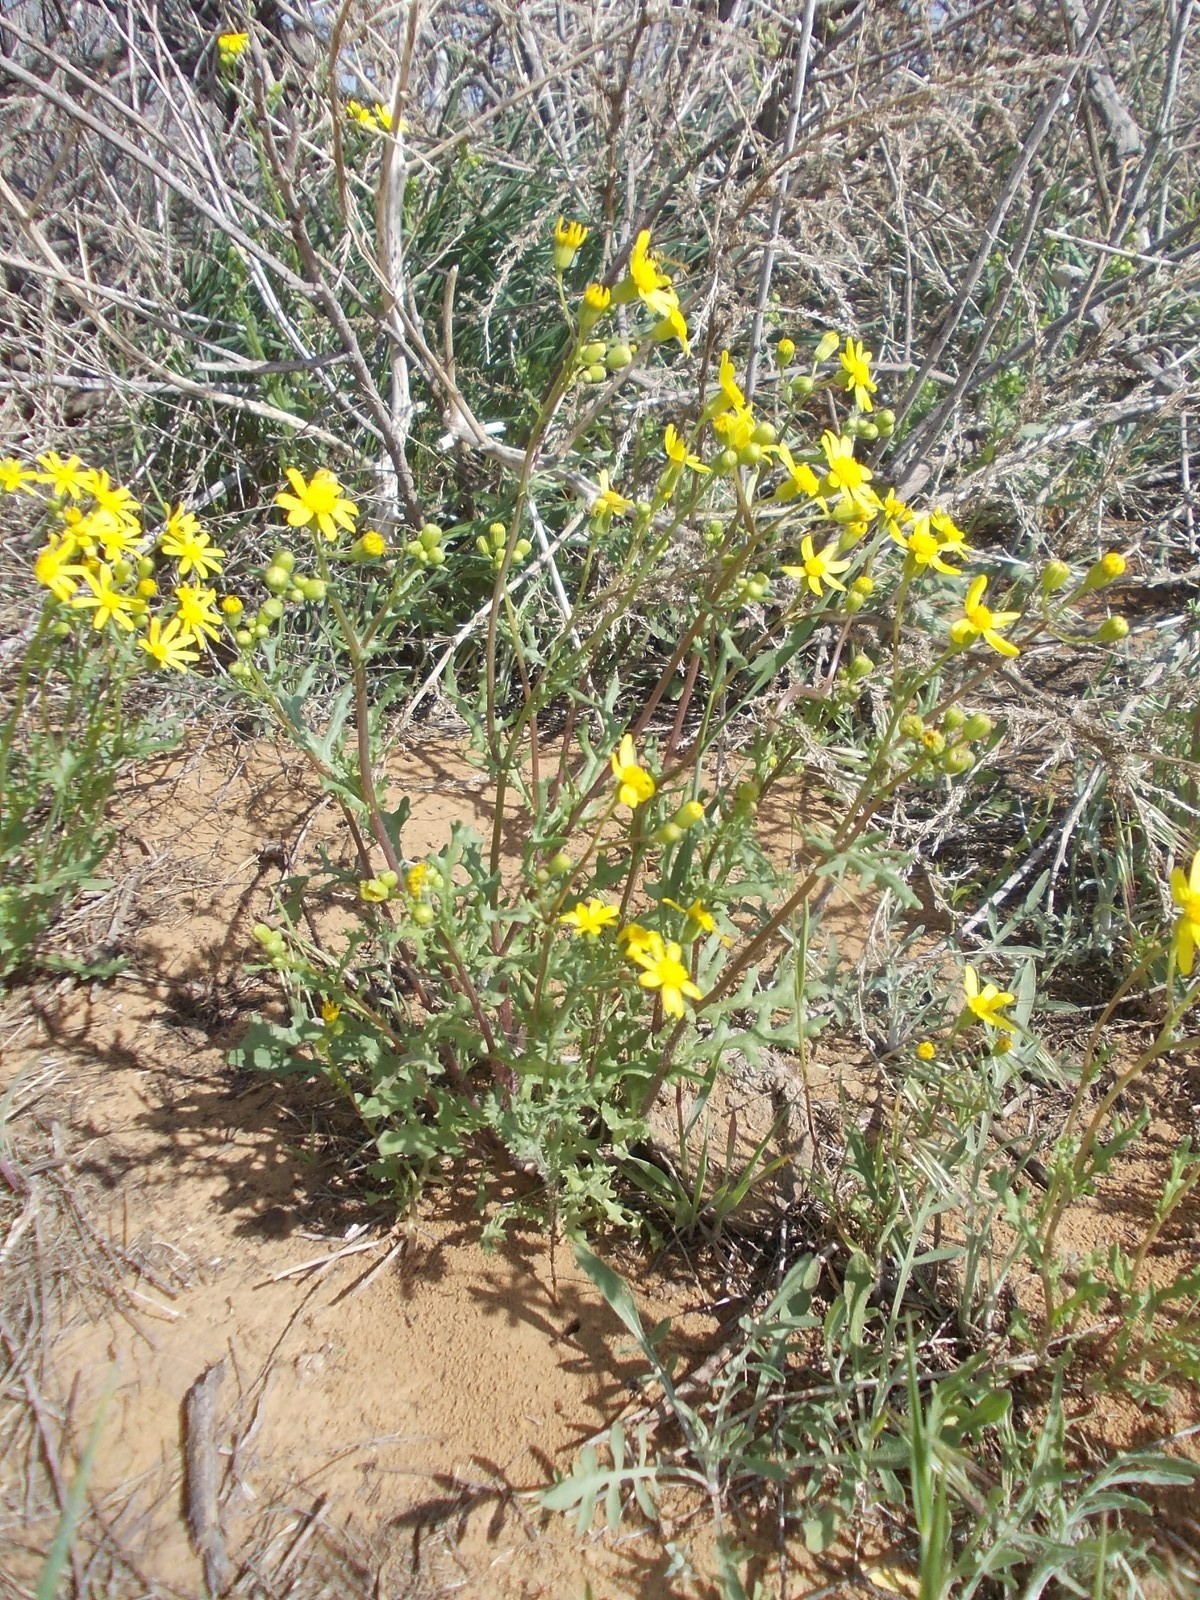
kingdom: Plantae
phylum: Tracheophyta
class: Magnoliopsida
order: Asterales
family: Asteraceae
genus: Senecio
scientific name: Senecio vernalis
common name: Eastern groundsel
